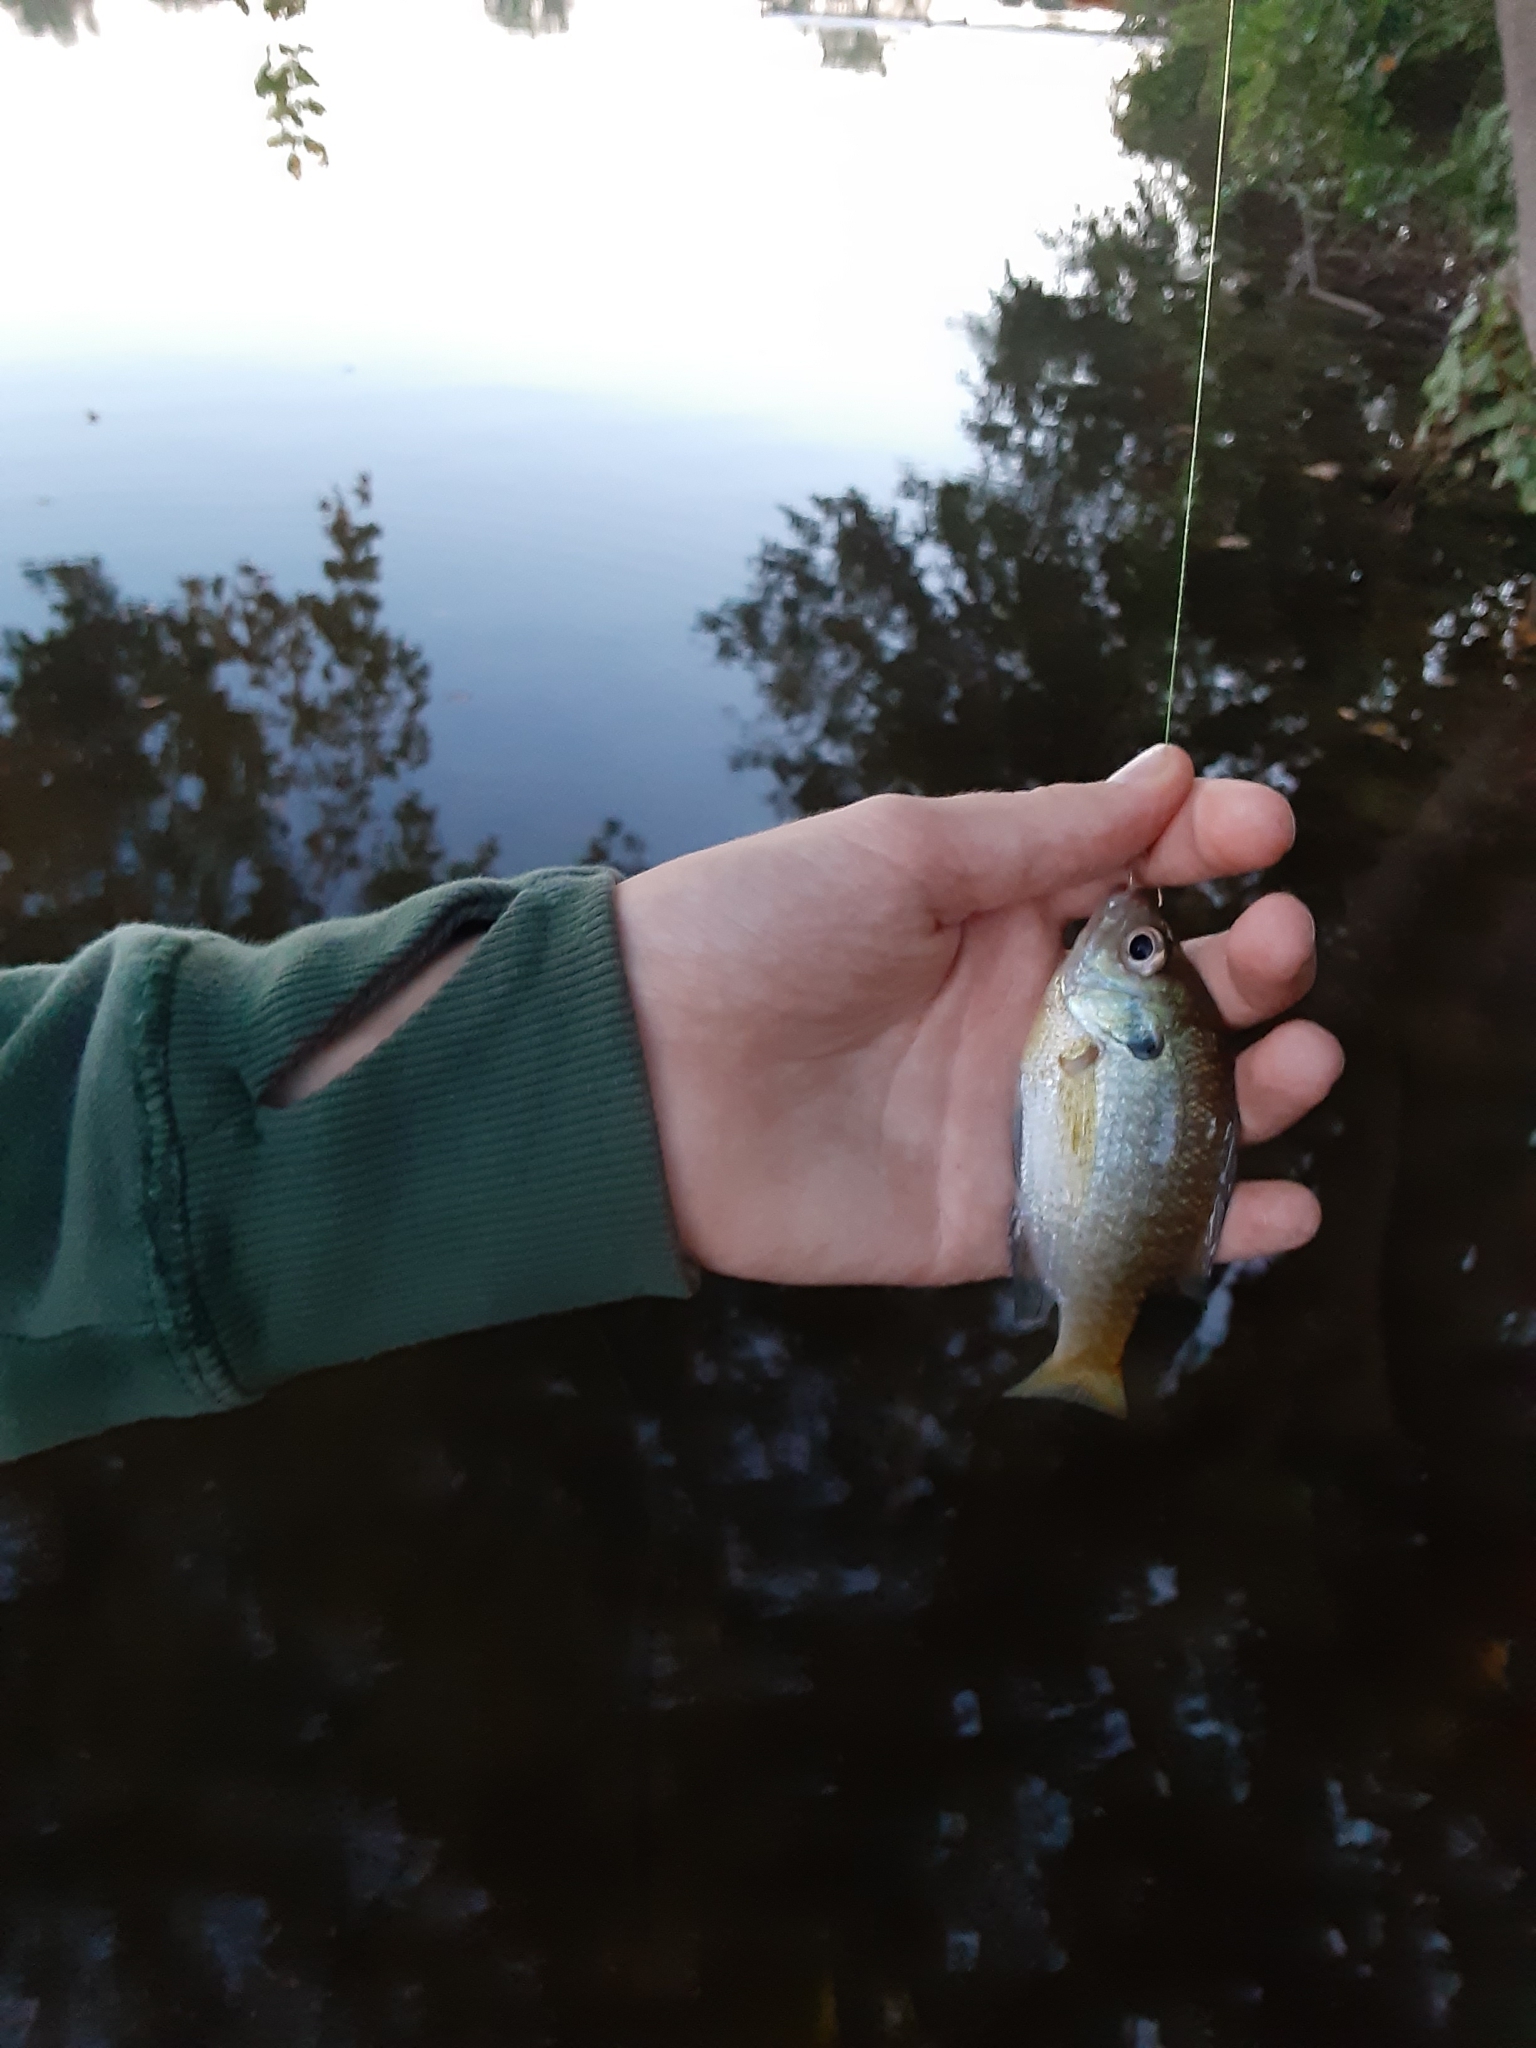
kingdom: Animalia
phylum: Chordata
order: Perciformes
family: Centrarchidae
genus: Lepomis
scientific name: Lepomis macrochirus
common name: Bluegill
